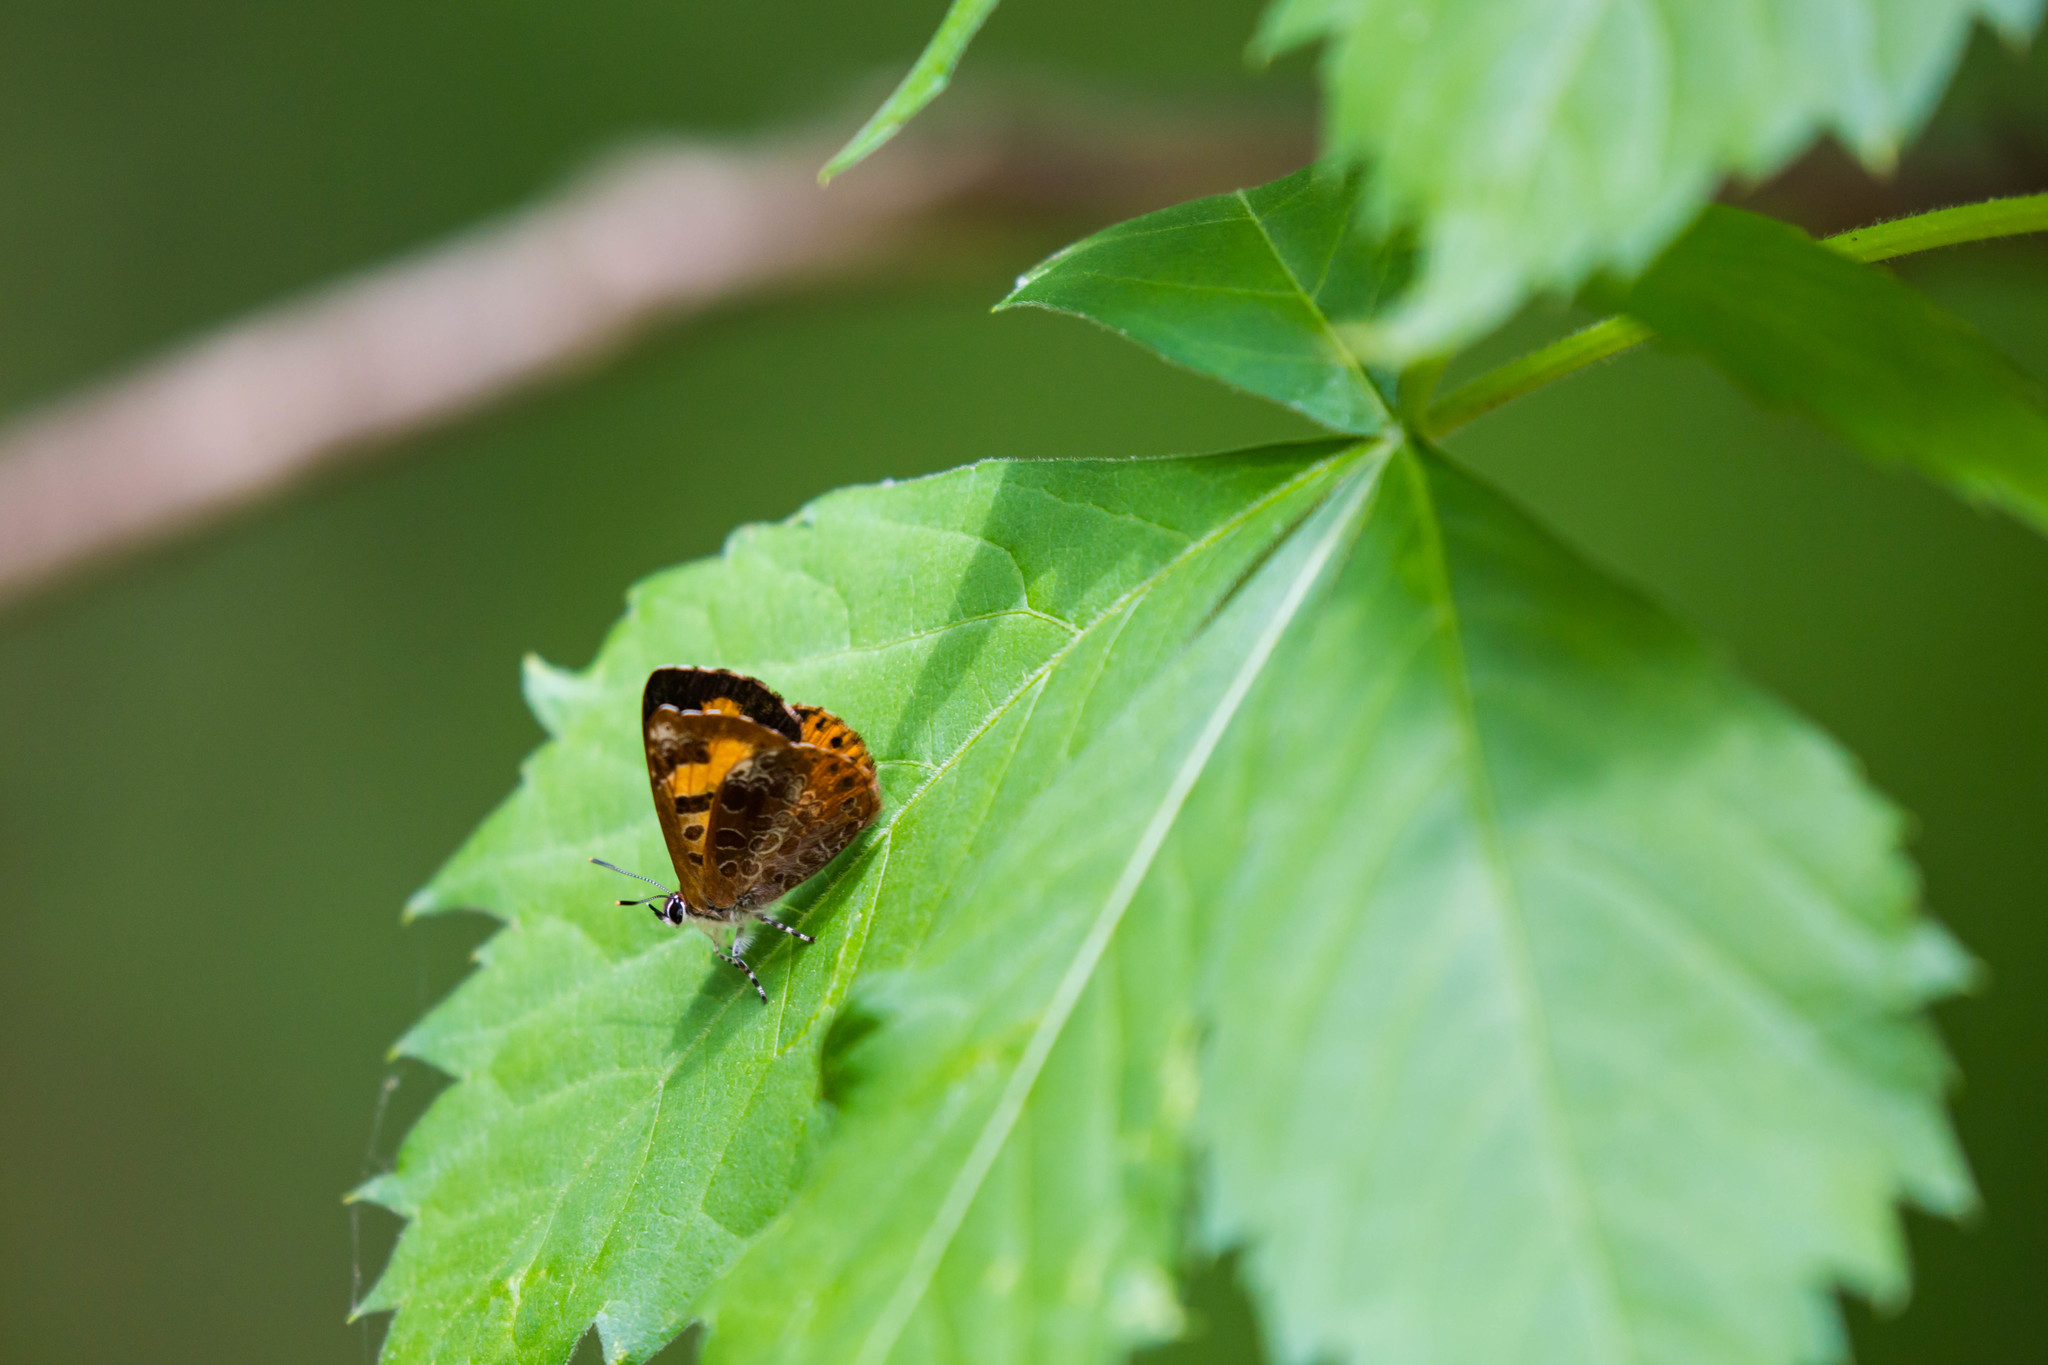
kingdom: Animalia
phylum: Arthropoda
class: Insecta
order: Lepidoptera
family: Lycaenidae
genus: Feniseca
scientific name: Feniseca tarquinius
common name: Harvester
